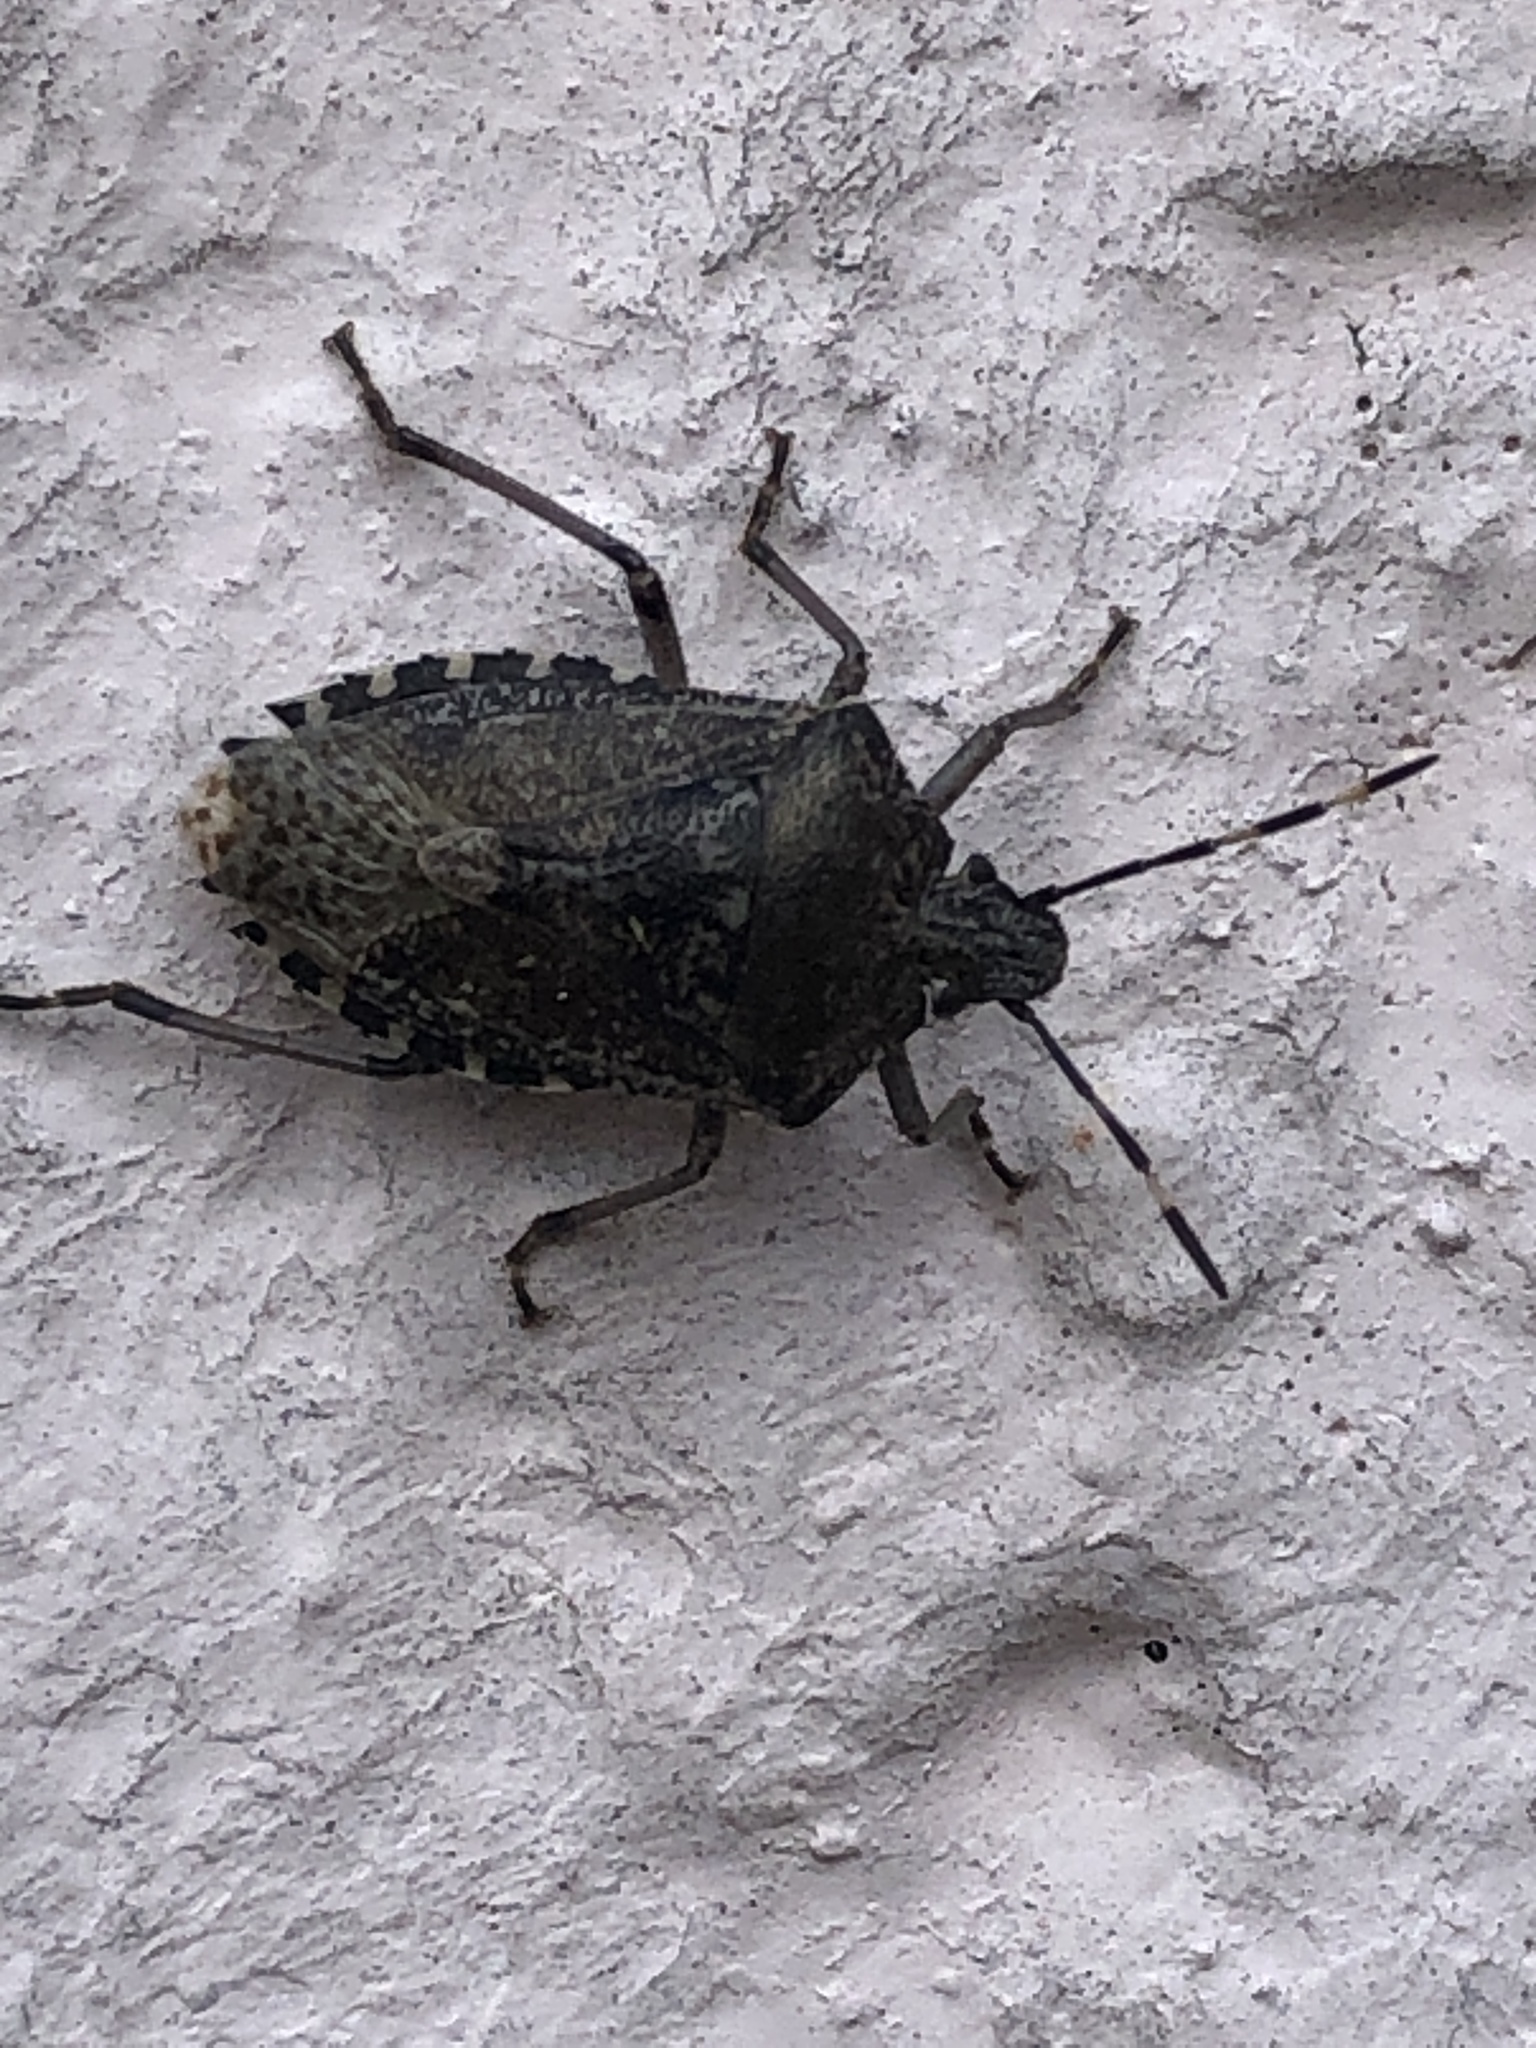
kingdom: Animalia
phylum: Arthropoda
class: Insecta
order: Hemiptera
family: Pentatomidae
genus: Rhaphigaster
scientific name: Rhaphigaster nebulosa
